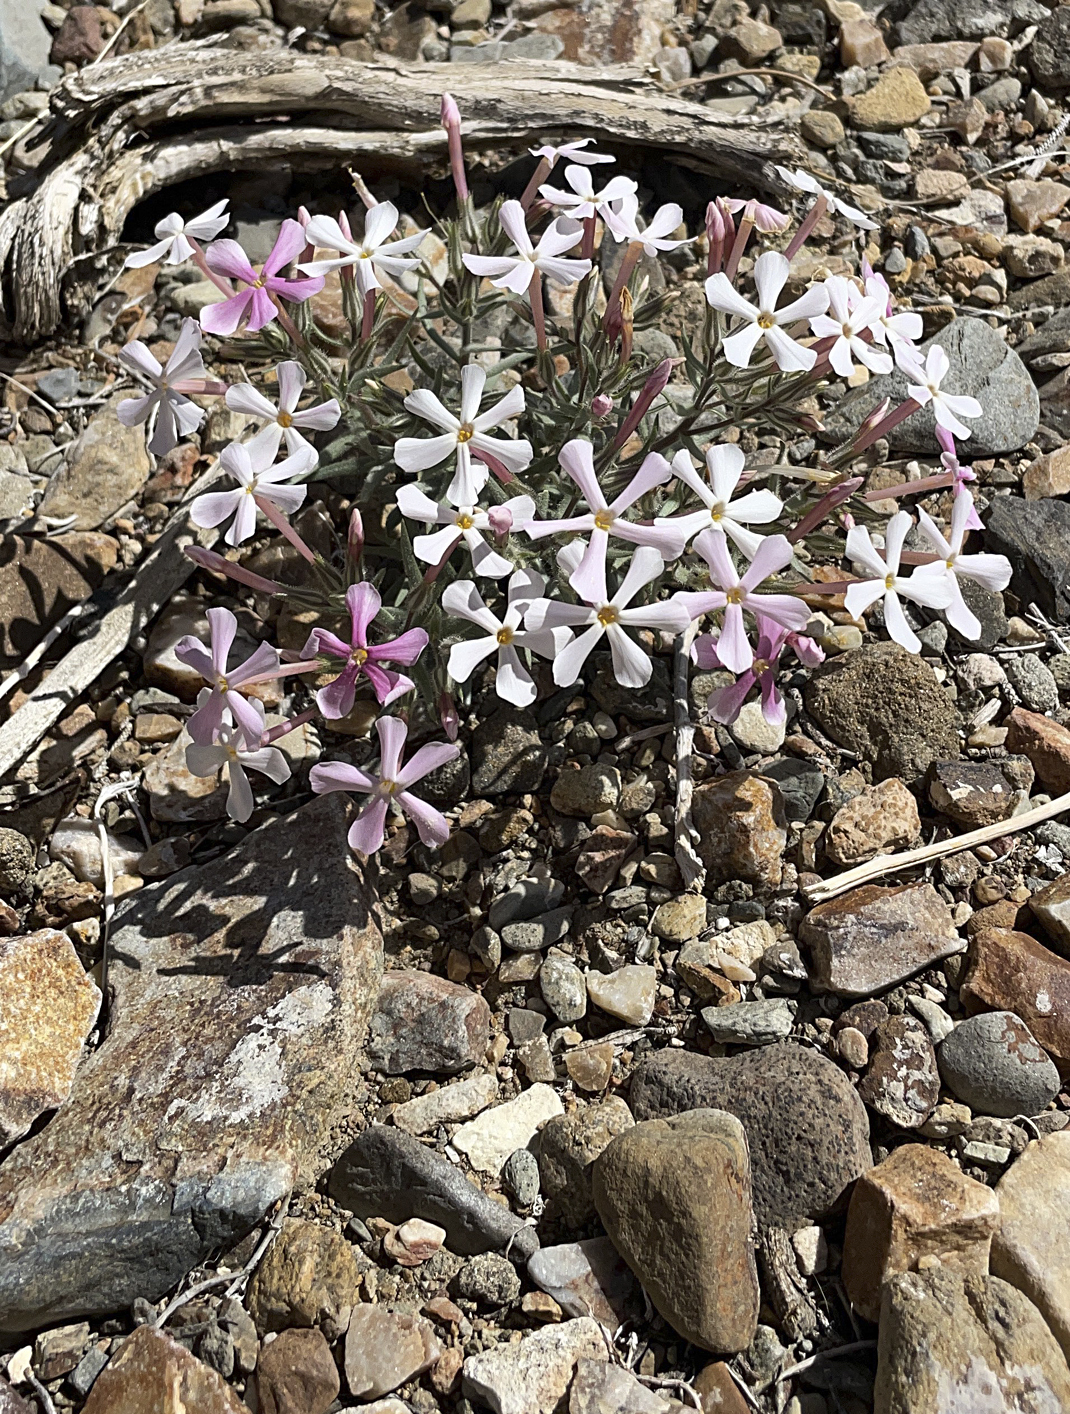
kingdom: Plantae
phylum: Tracheophyta
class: Magnoliopsida
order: Ericales
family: Polemoniaceae
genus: Phlox
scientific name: Phlox longifolia
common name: Longleaf phlox
